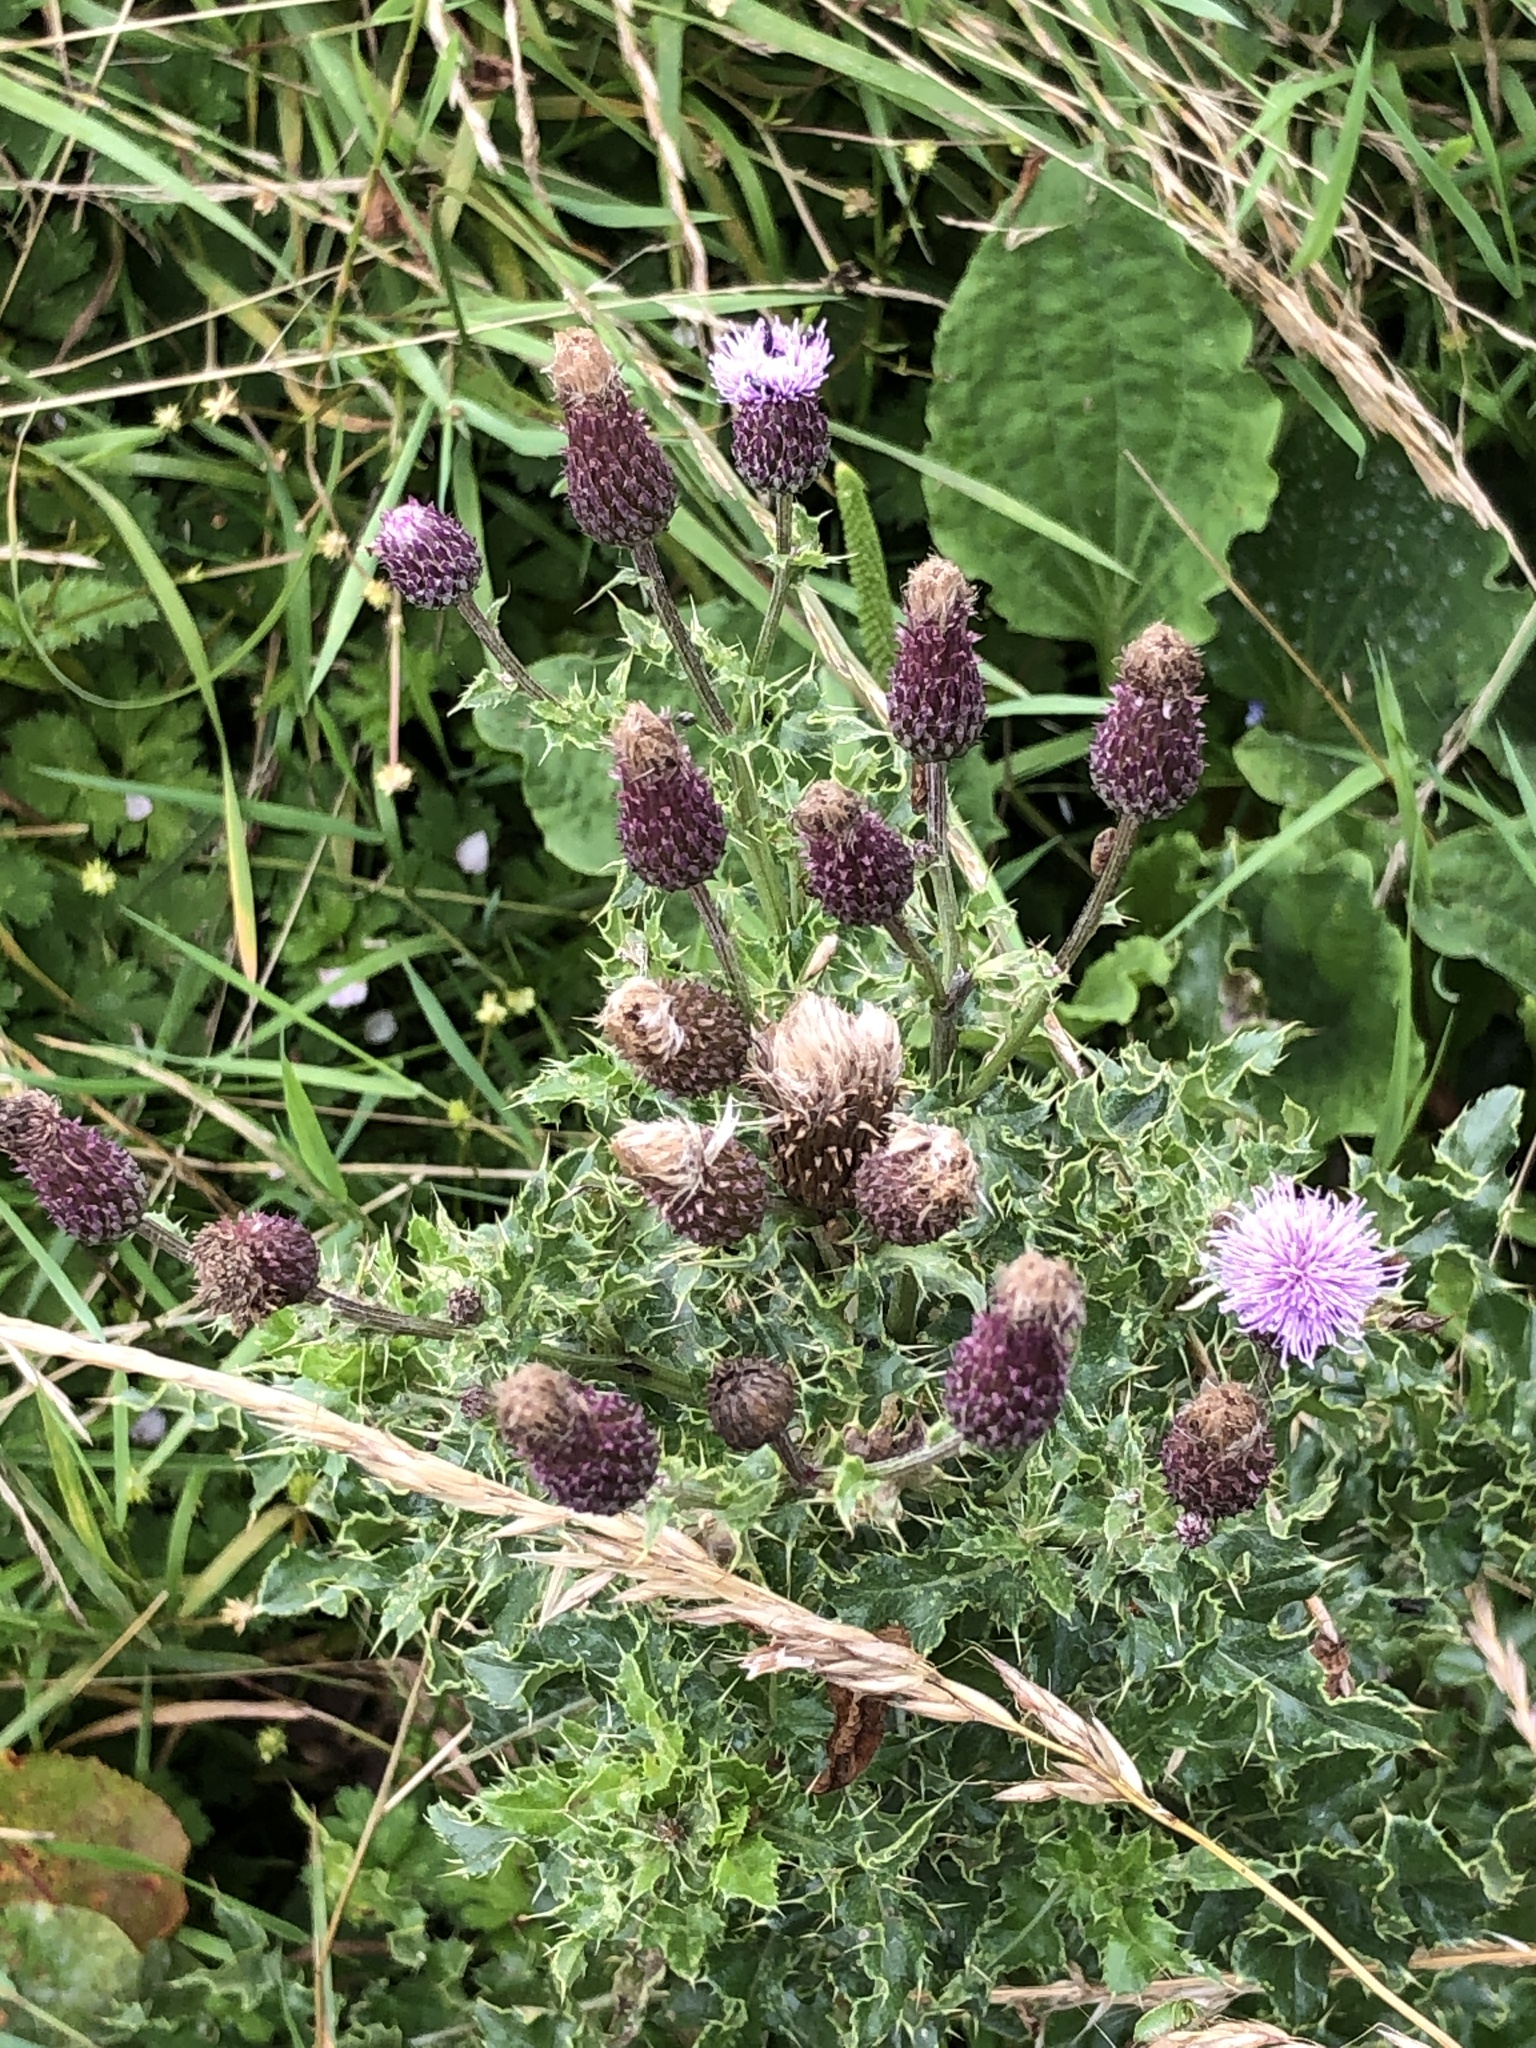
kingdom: Plantae
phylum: Tracheophyta
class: Magnoliopsida
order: Asterales
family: Asteraceae
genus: Cirsium
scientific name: Cirsium arvense
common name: Creeping thistle
